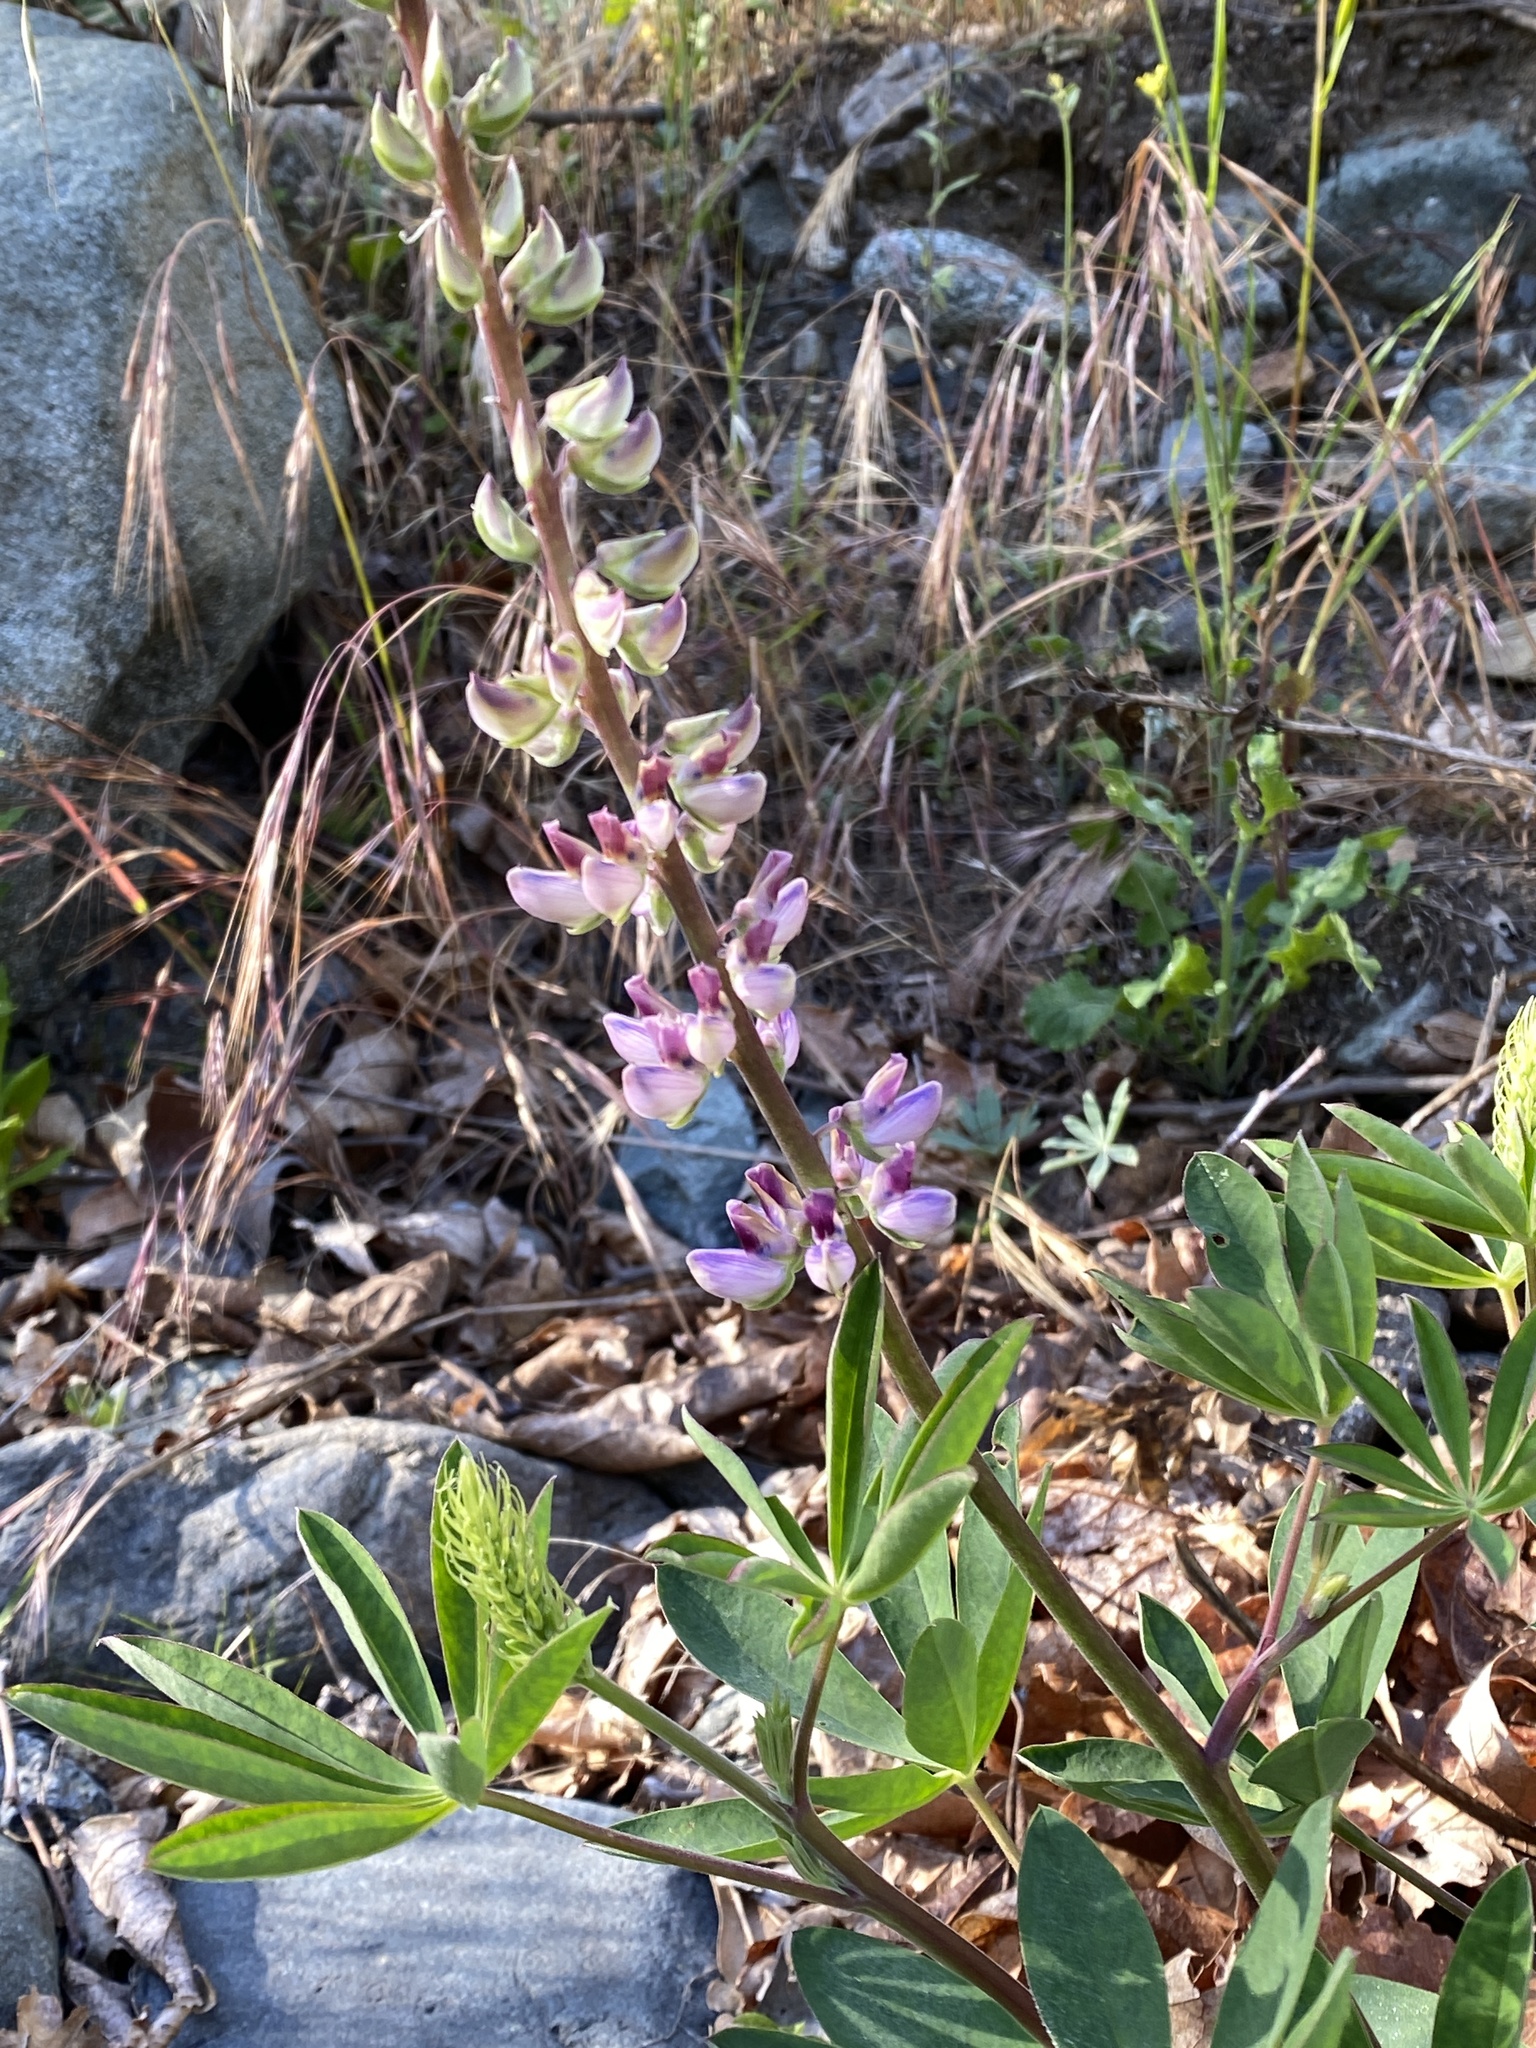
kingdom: Plantae
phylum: Tracheophyta
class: Magnoliopsida
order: Fabales
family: Fabaceae
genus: Lupinus
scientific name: Lupinus latifolius
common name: Broad-leaved lupine
